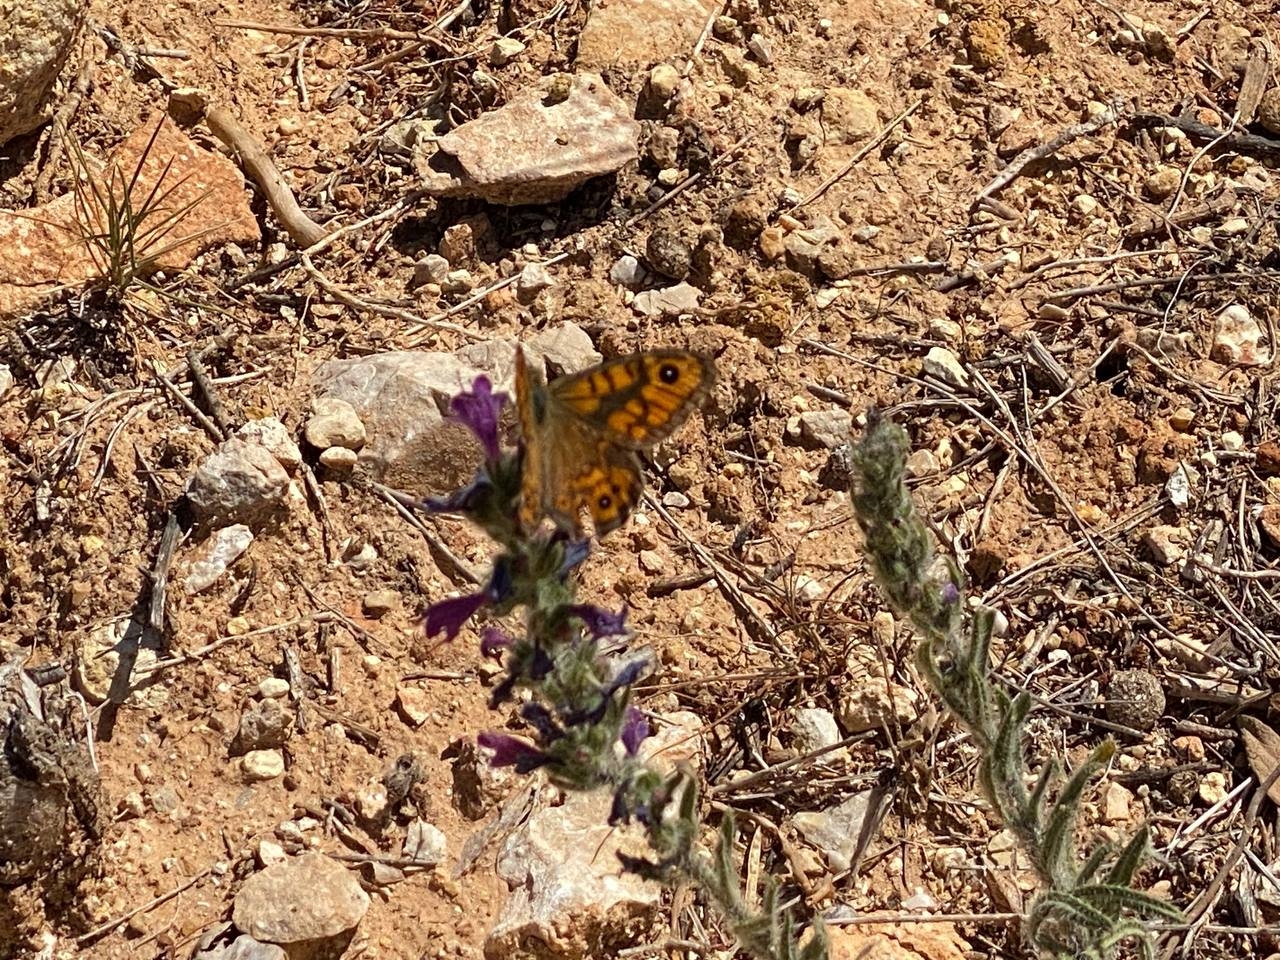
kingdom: Animalia
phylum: Arthropoda
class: Insecta
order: Lepidoptera
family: Nymphalidae
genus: Pararge
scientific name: Pararge Lasiommata megera
